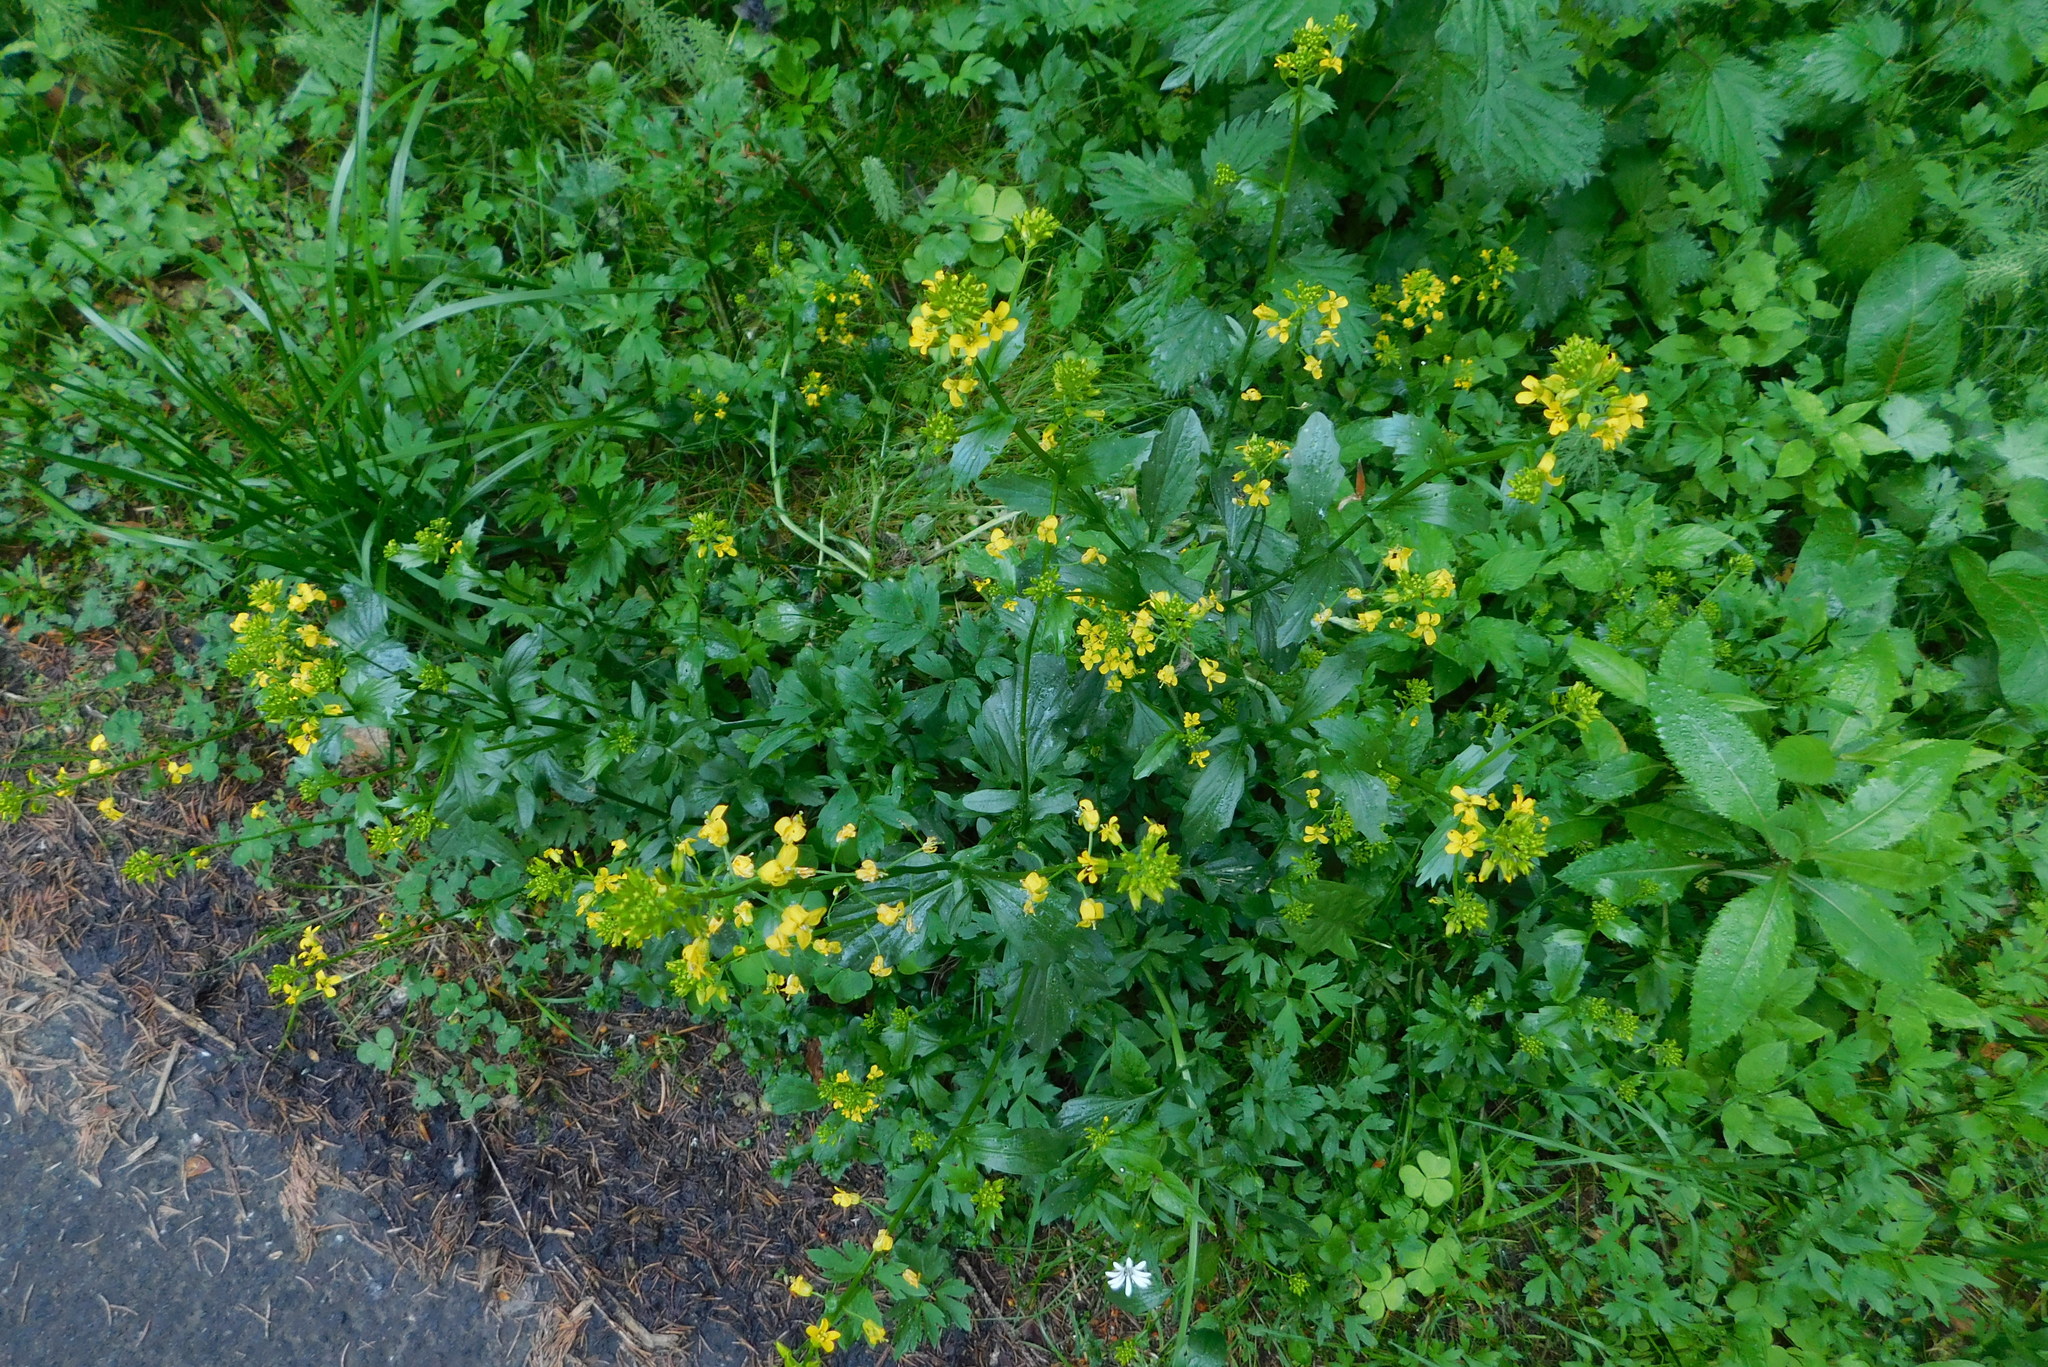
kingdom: Plantae
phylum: Tracheophyta
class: Magnoliopsida
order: Brassicales
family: Brassicaceae
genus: Barbarea
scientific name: Barbarea vulgaris
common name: Cressy-greens
